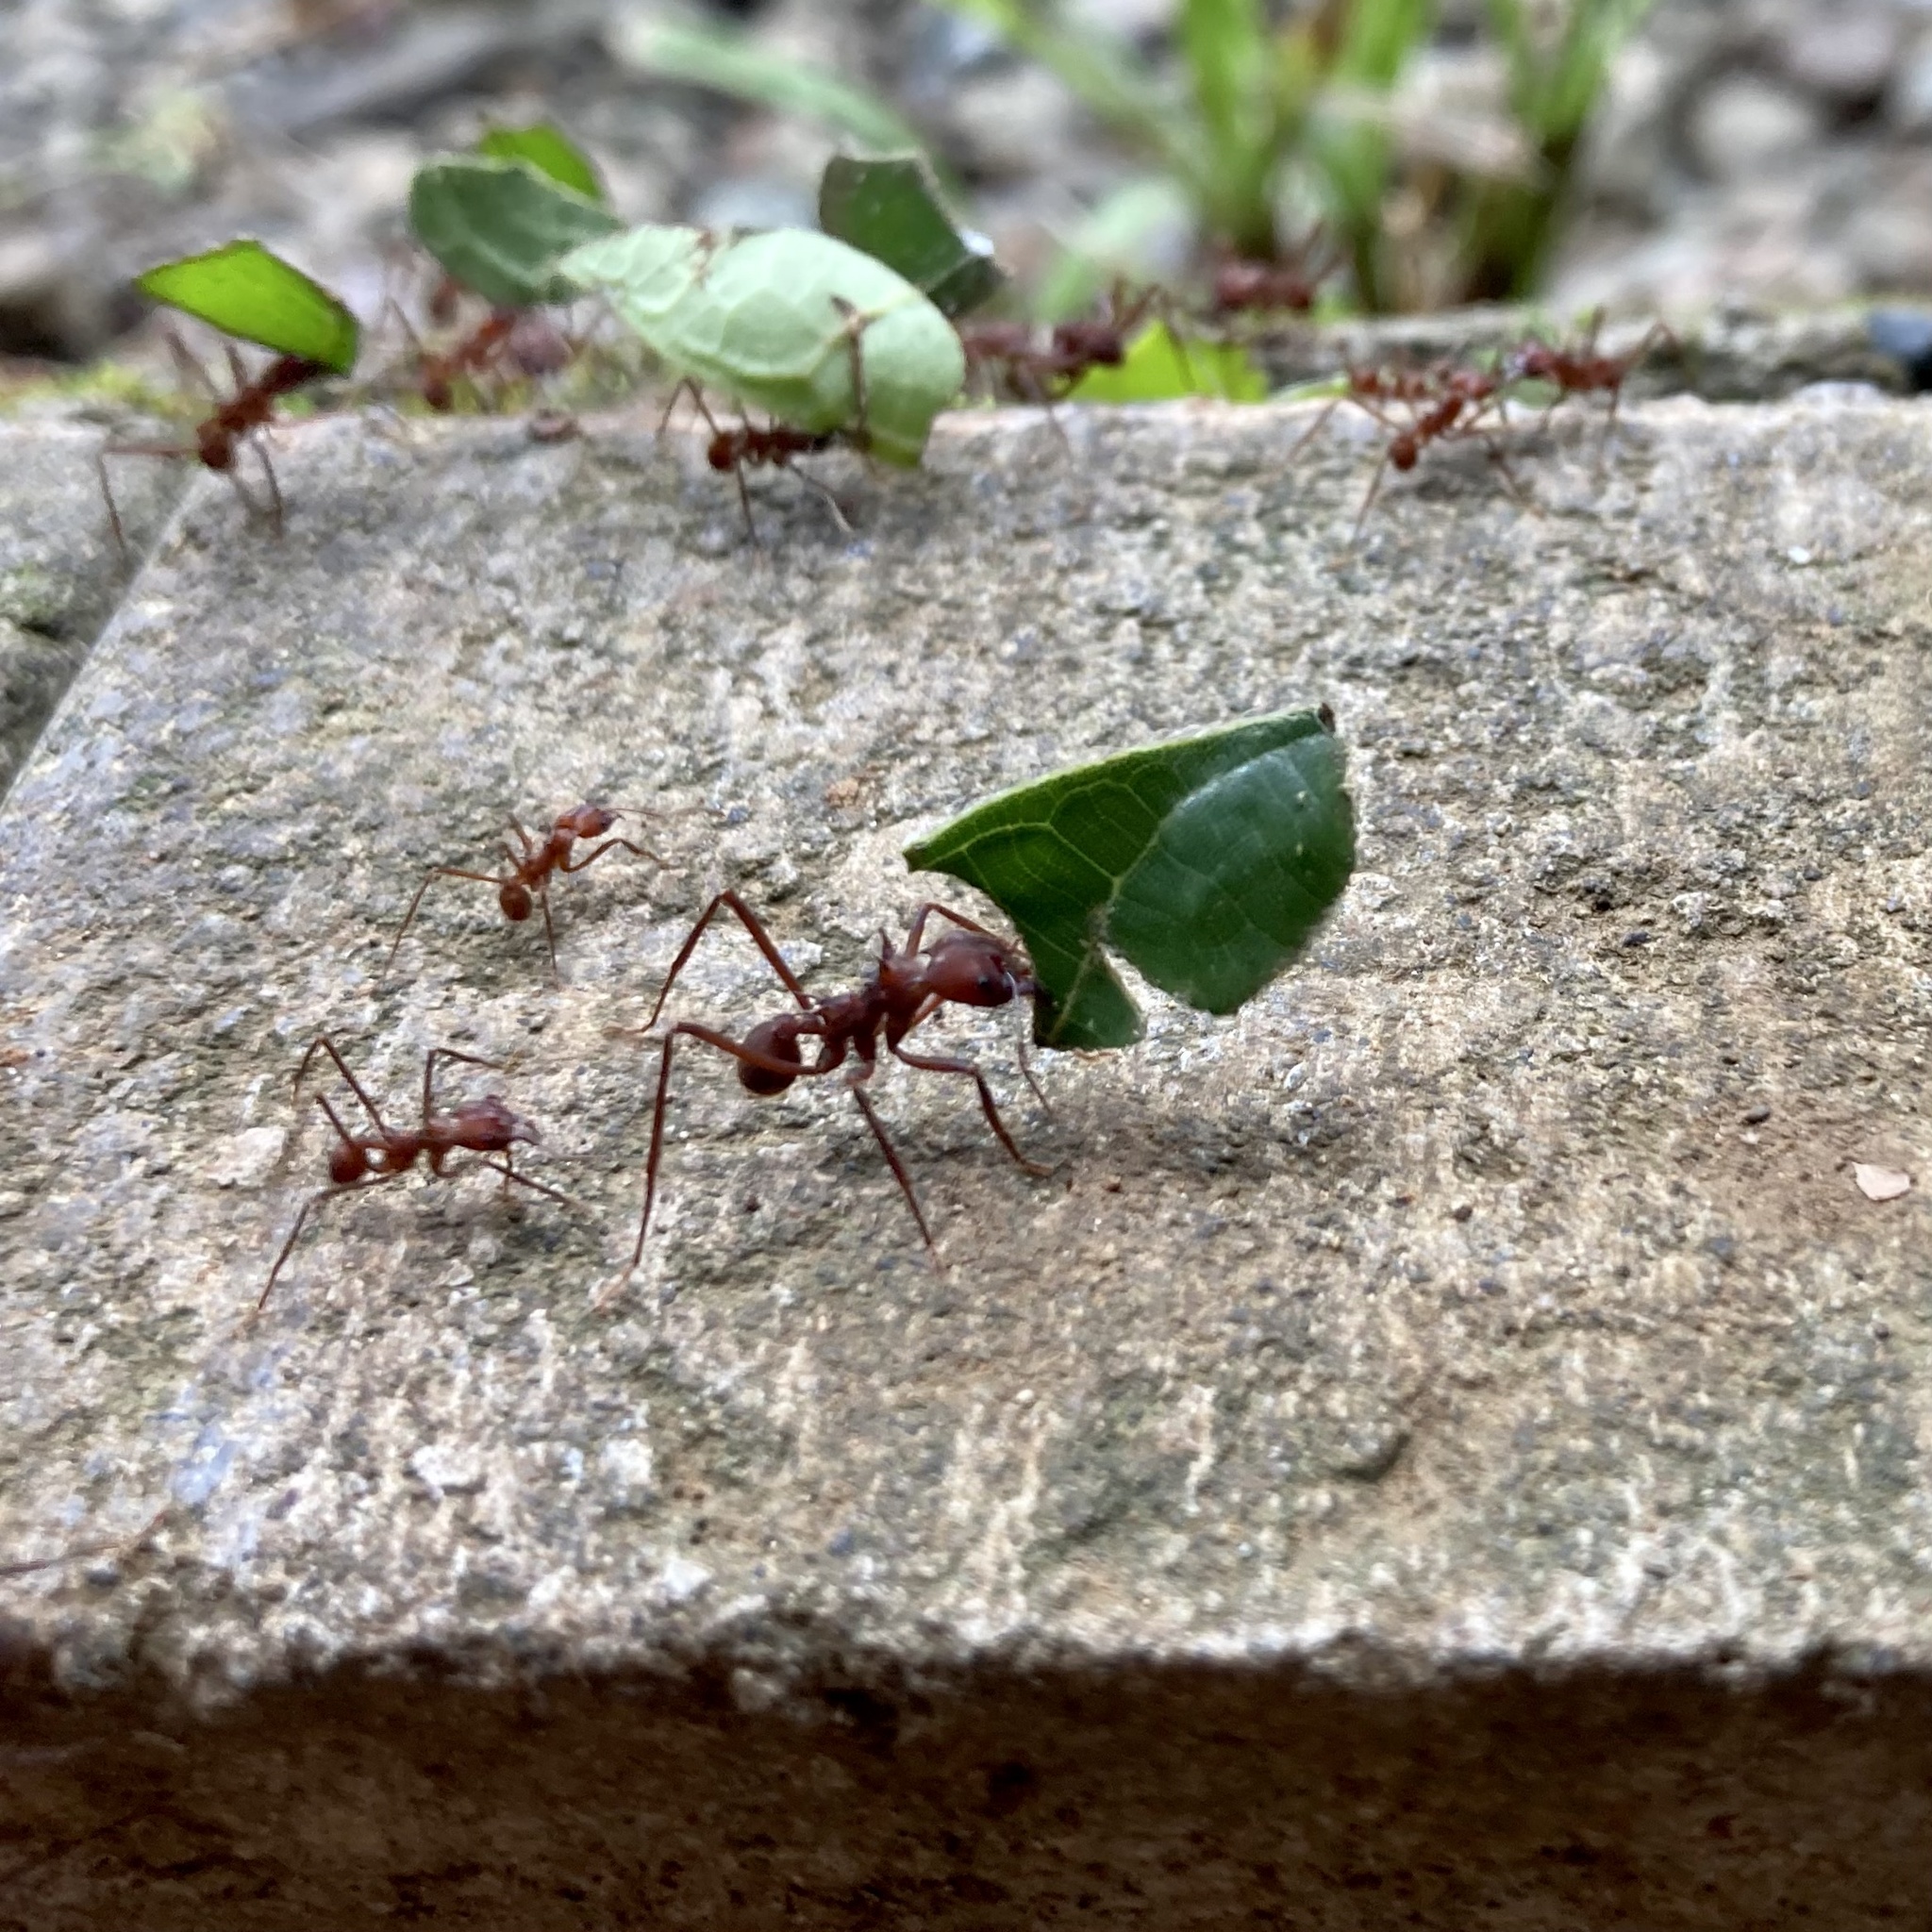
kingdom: Animalia
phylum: Arthropoda
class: Insecta
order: Hymenoptera
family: Formicidae
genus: Atta
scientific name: Atta colombica
